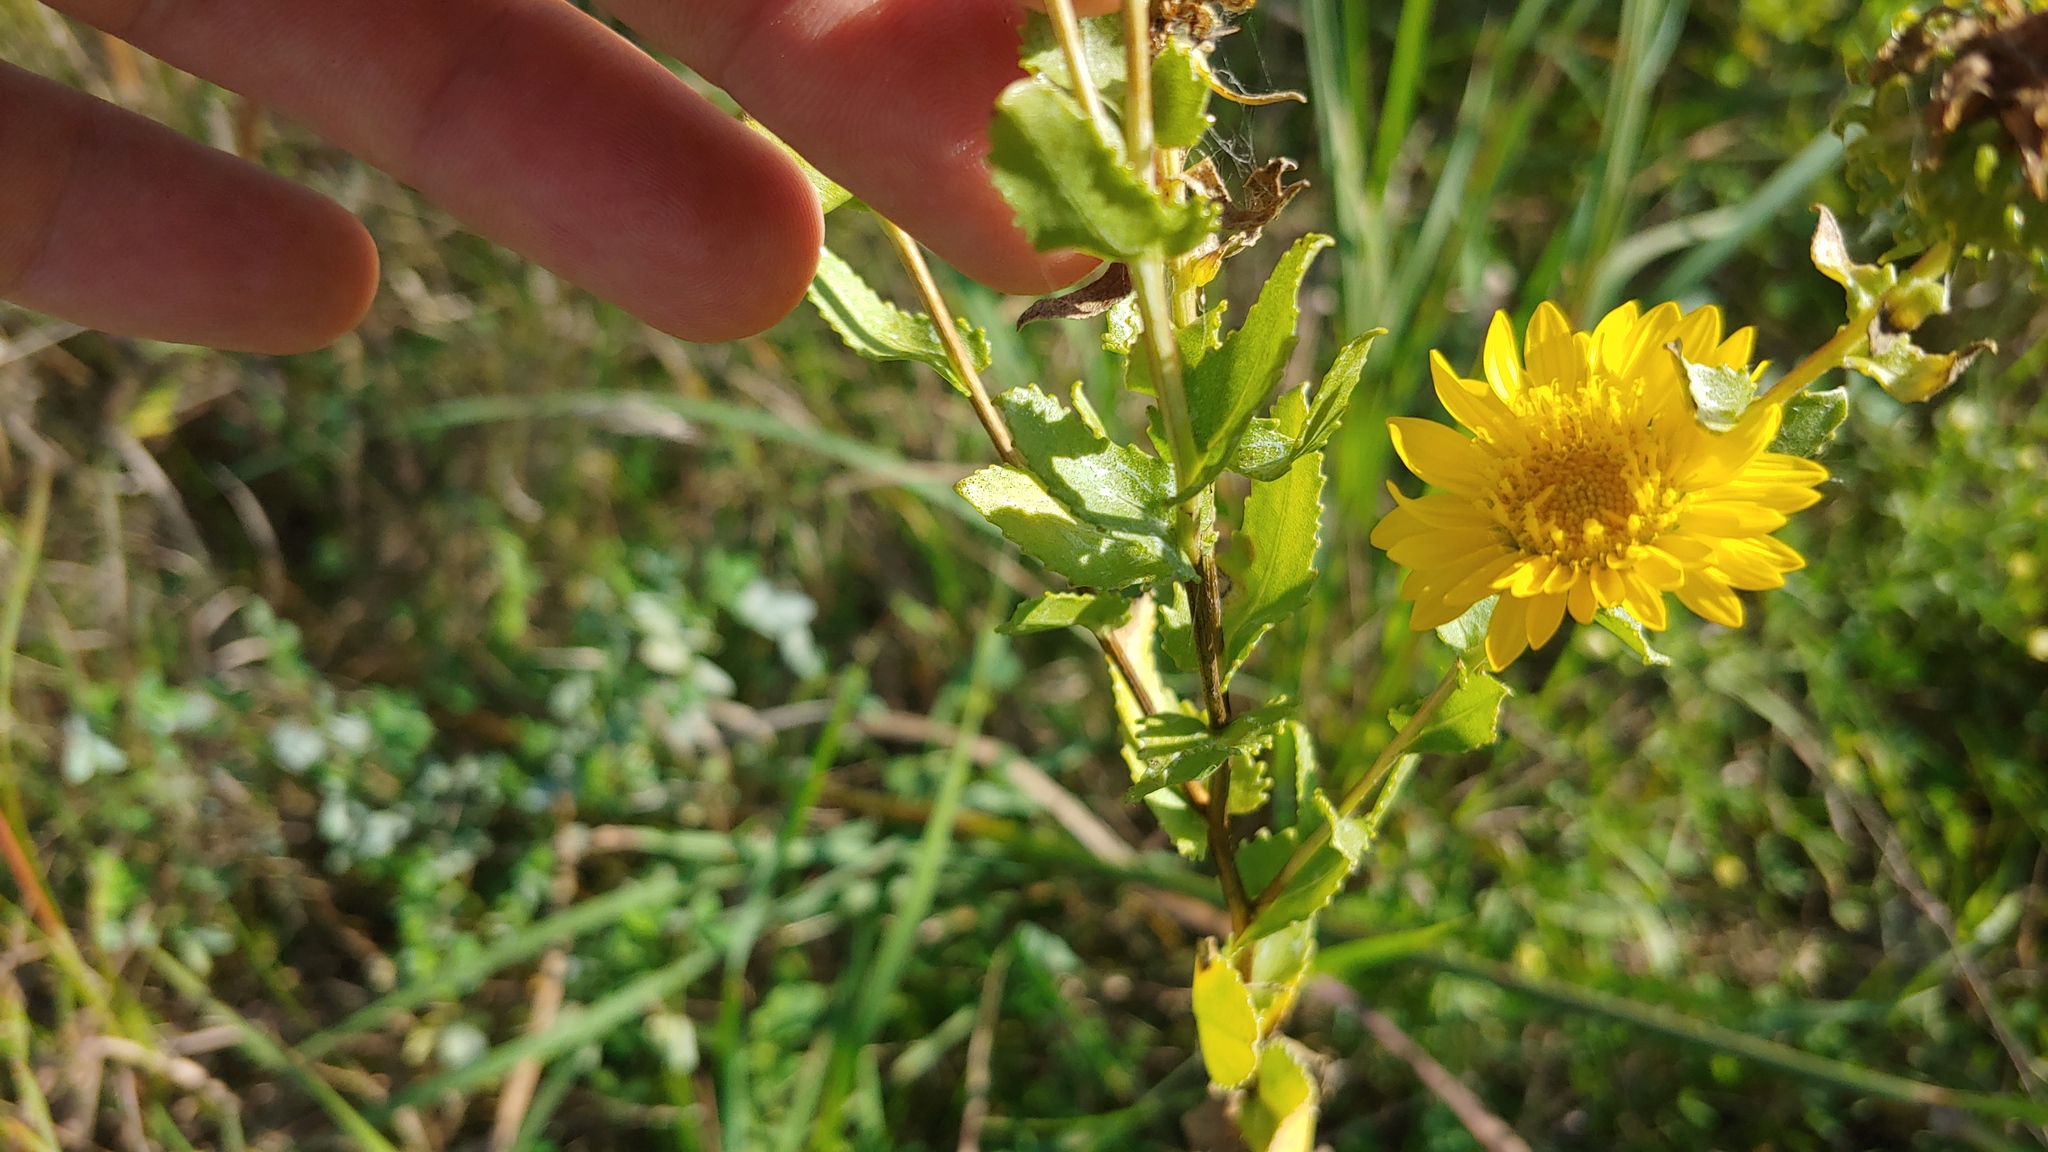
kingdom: Plantae
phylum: Tracheophyta
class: Magnoliopsida
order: Asterales
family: Asteraceae
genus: Grindelia
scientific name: Grindelia squarrosa
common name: Curly-cup gumweed
